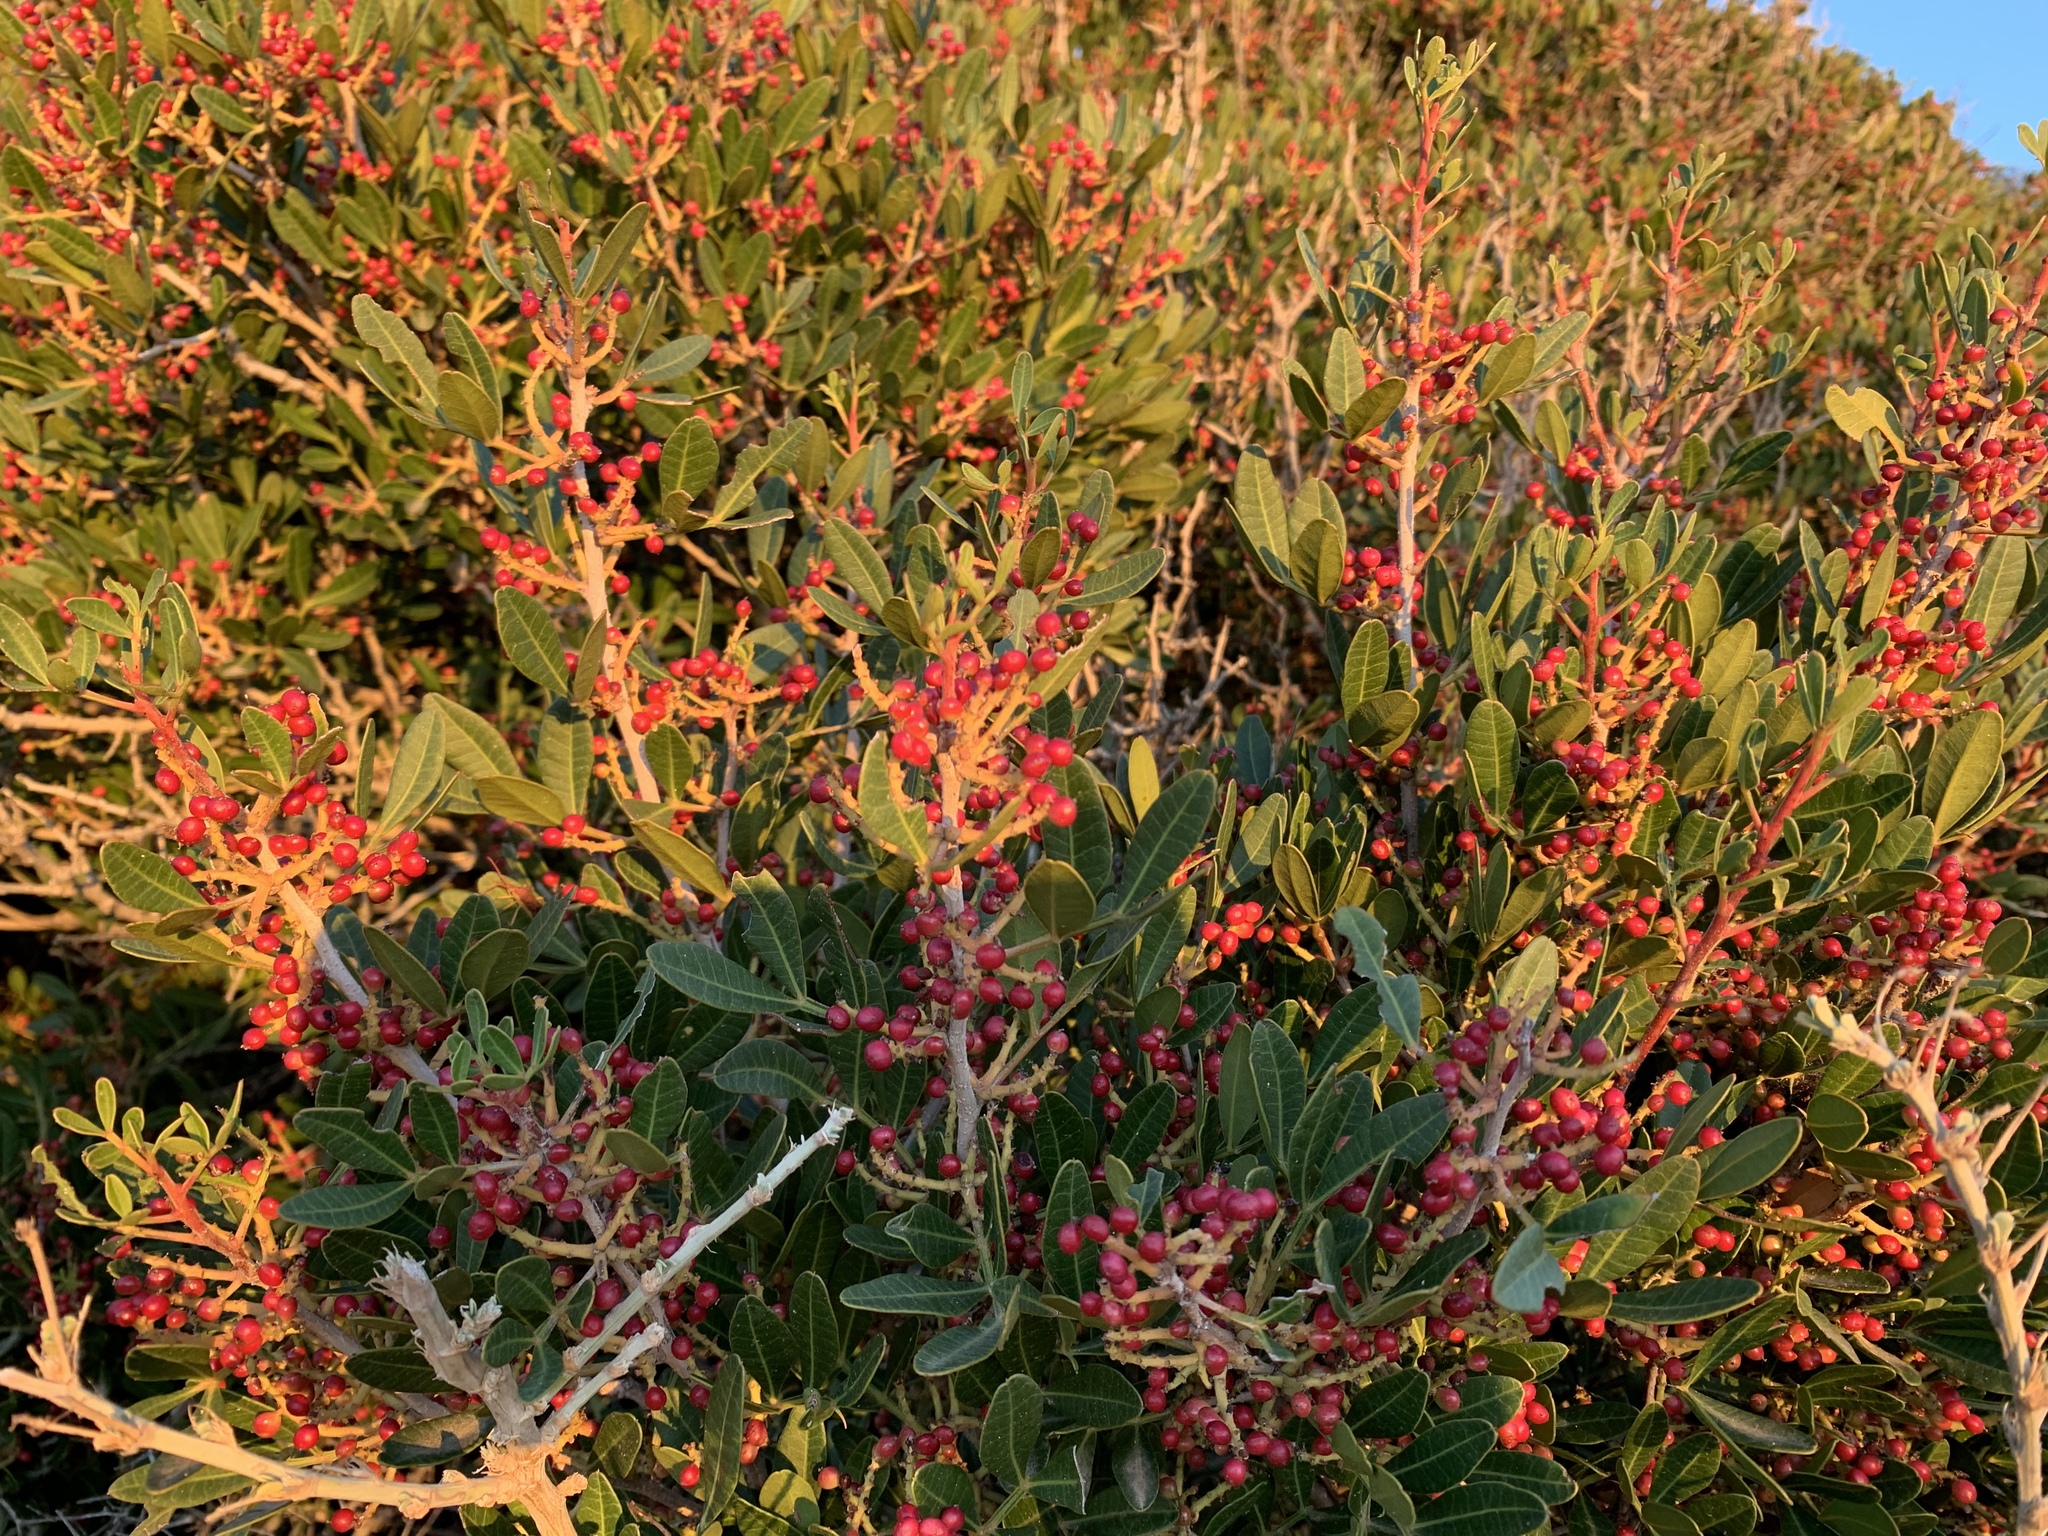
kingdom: Plantae
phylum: Tracheophyta
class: Magnoliopsida
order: Sapindales
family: Anacardiaceae
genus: Pistacia
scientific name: Pistacia lentiscus
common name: Lentisk
